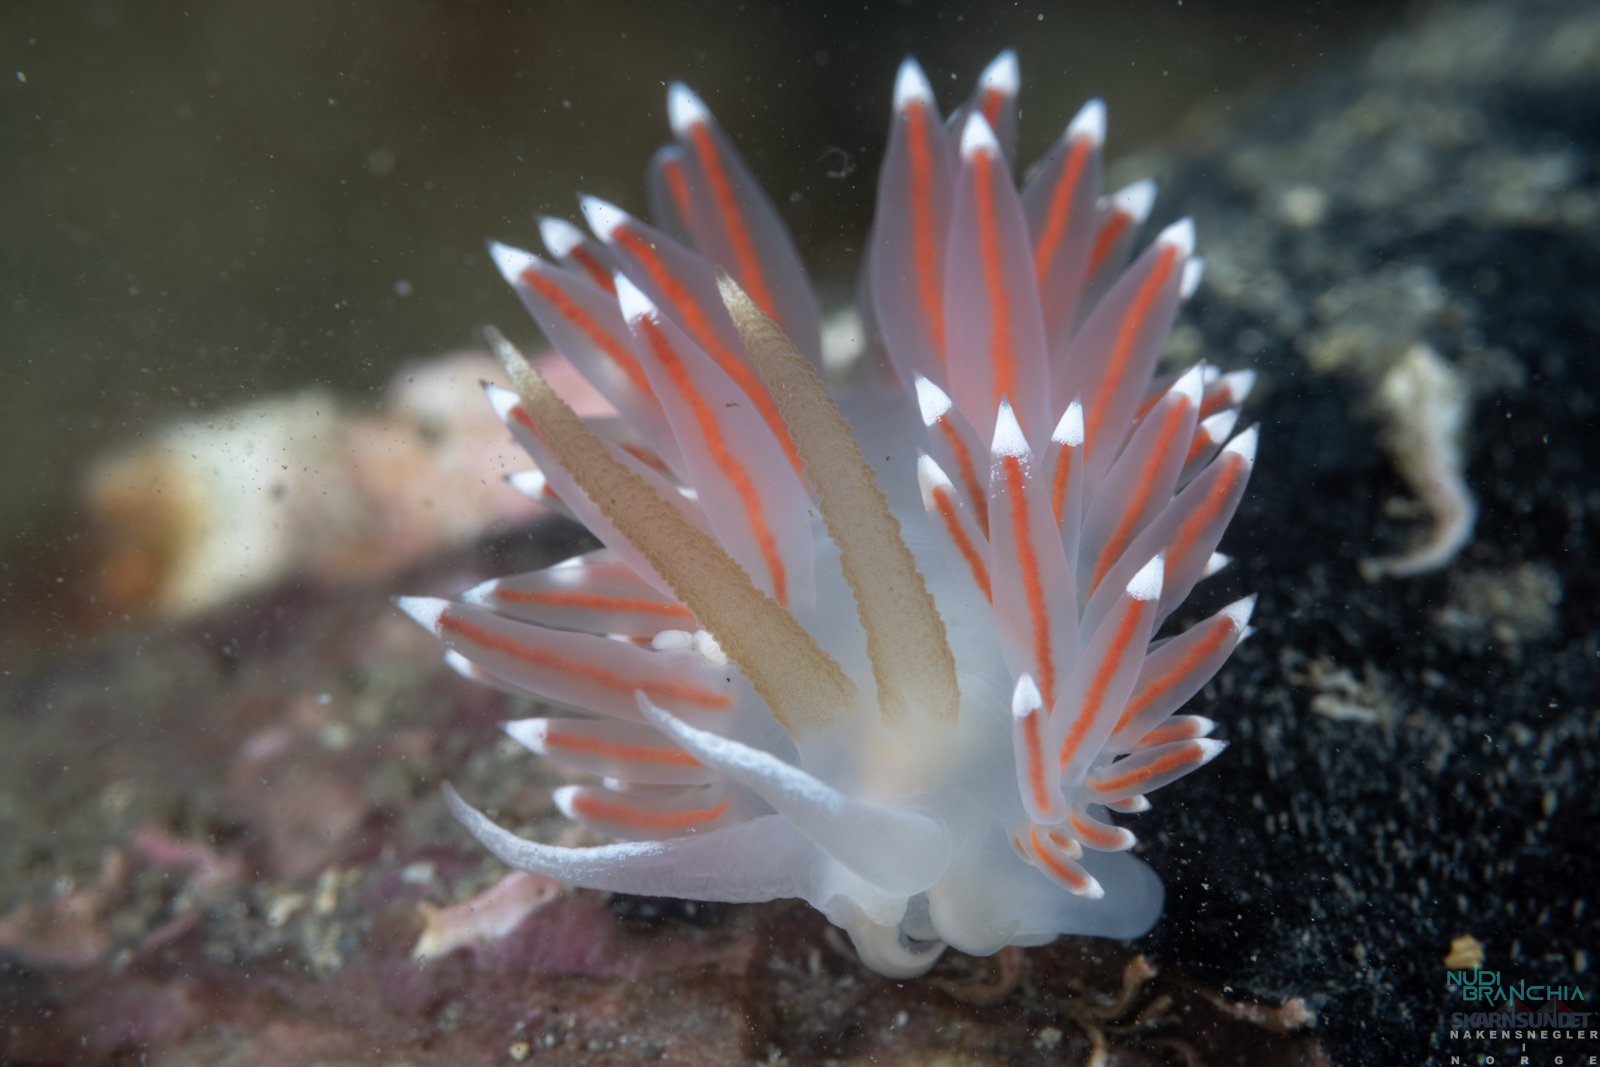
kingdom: Animalia
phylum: Mollusca
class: Gastropoda
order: Nudibranchia
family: Coryphellidae
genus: Coryphella
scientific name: Coryphella browni
